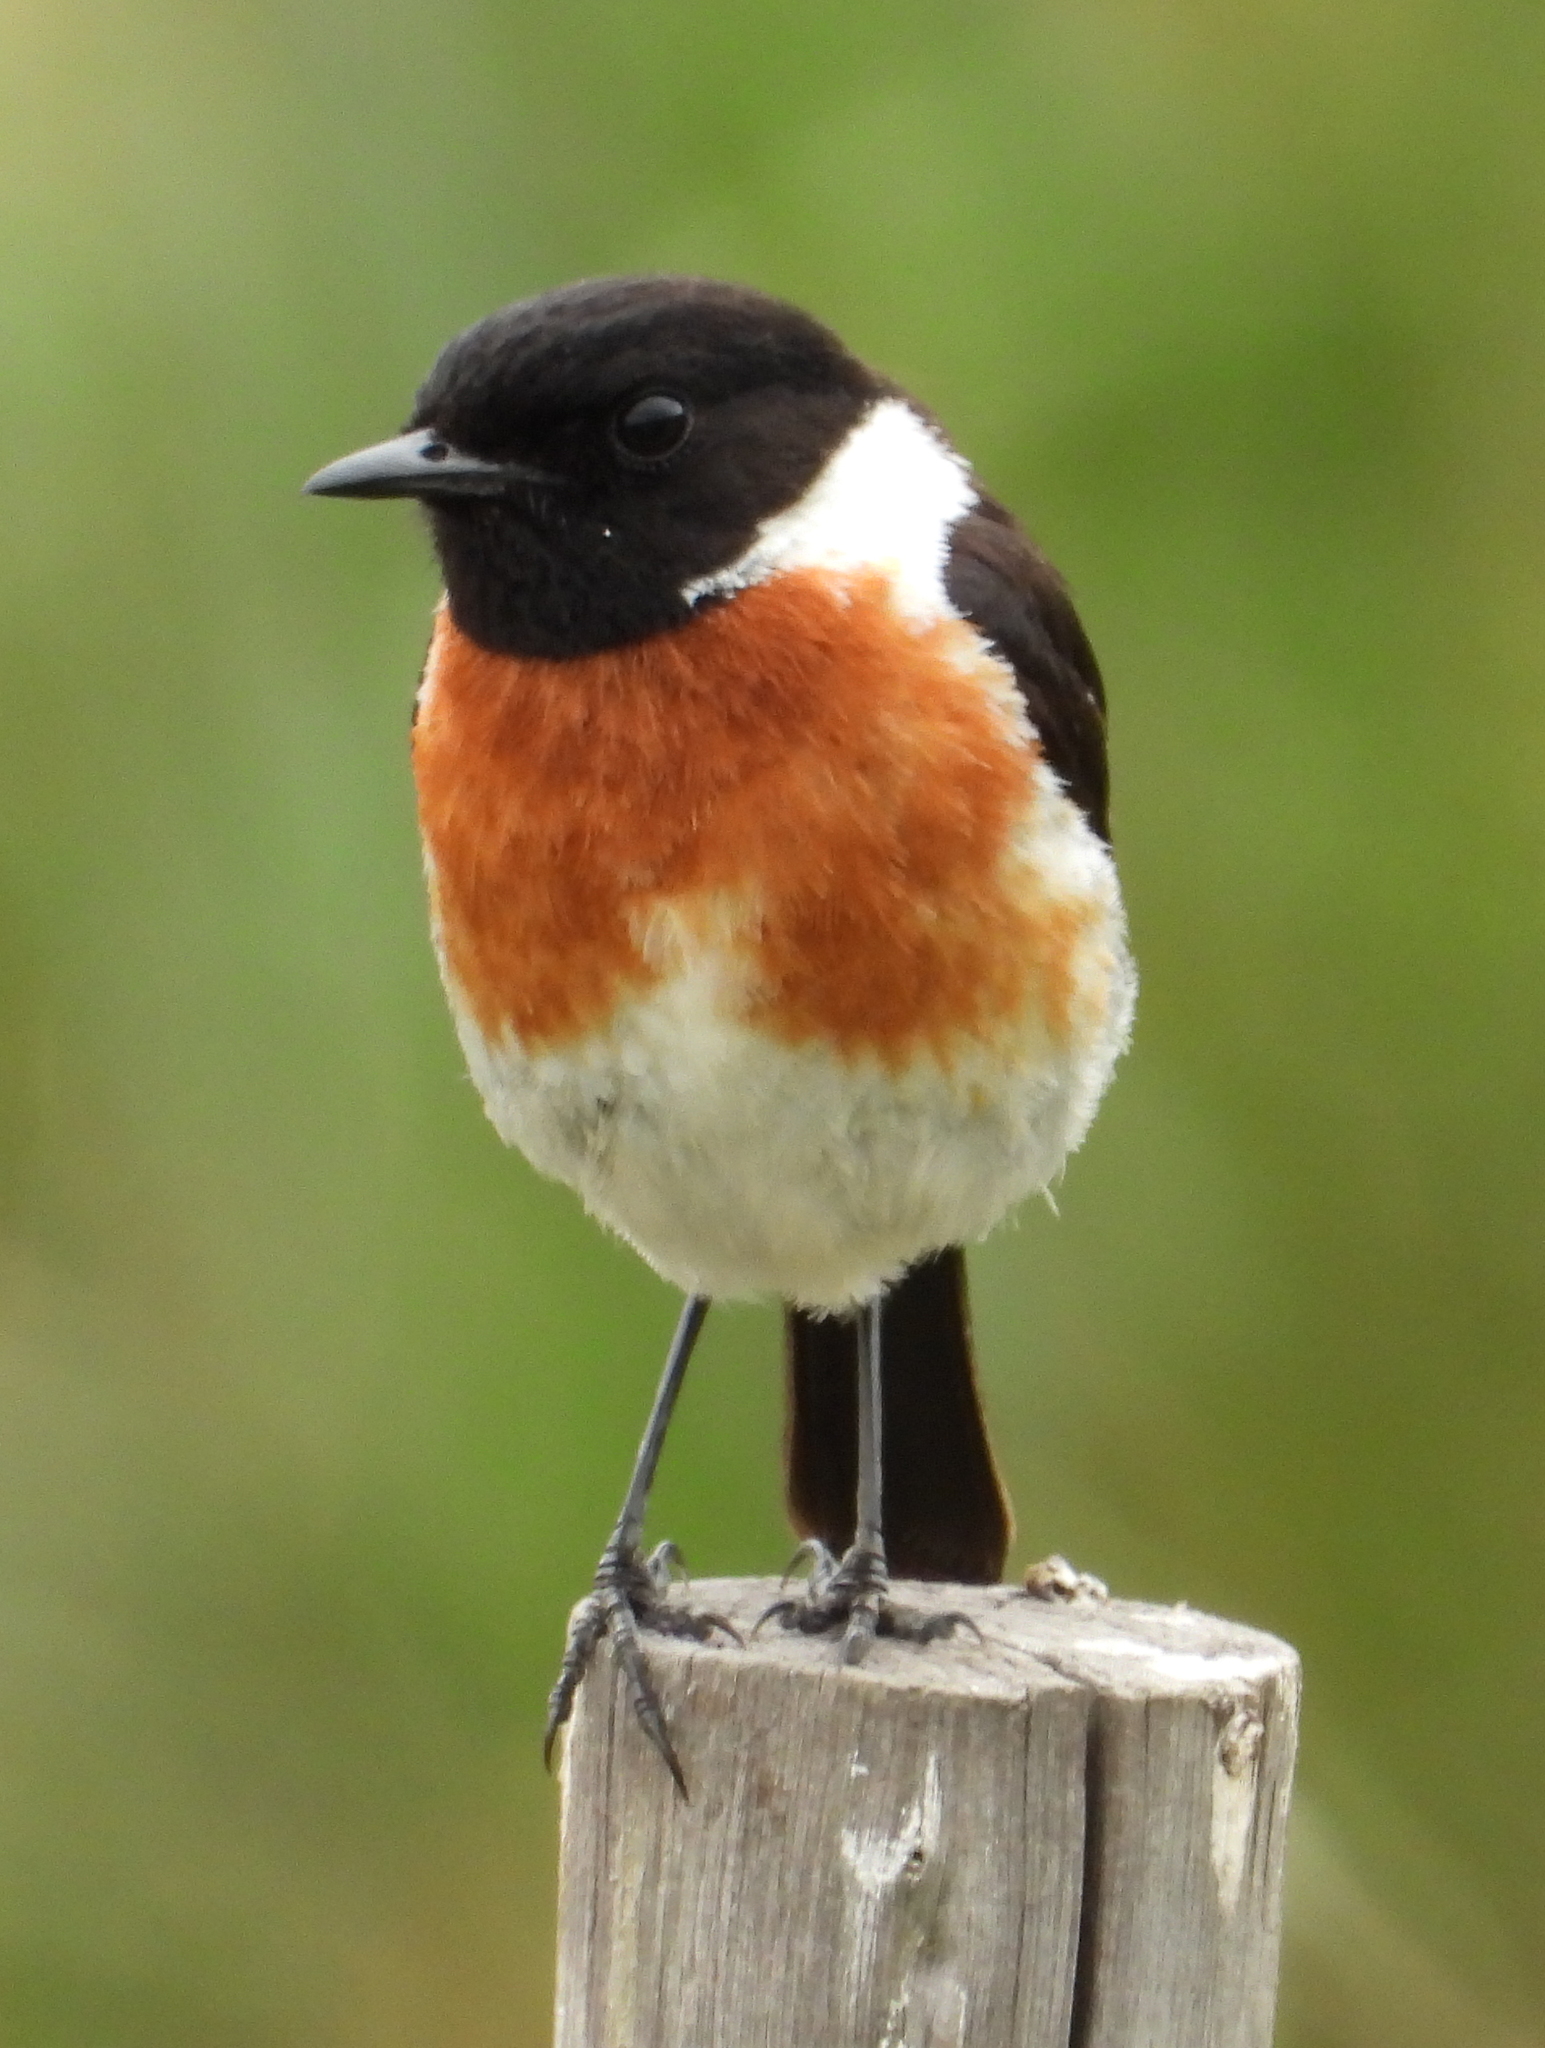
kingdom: Animalia
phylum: Chordata
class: Aves
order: Passeriformes
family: Muscicapidae
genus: Saxicola
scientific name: Saxicola torquatus
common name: African stonechat
